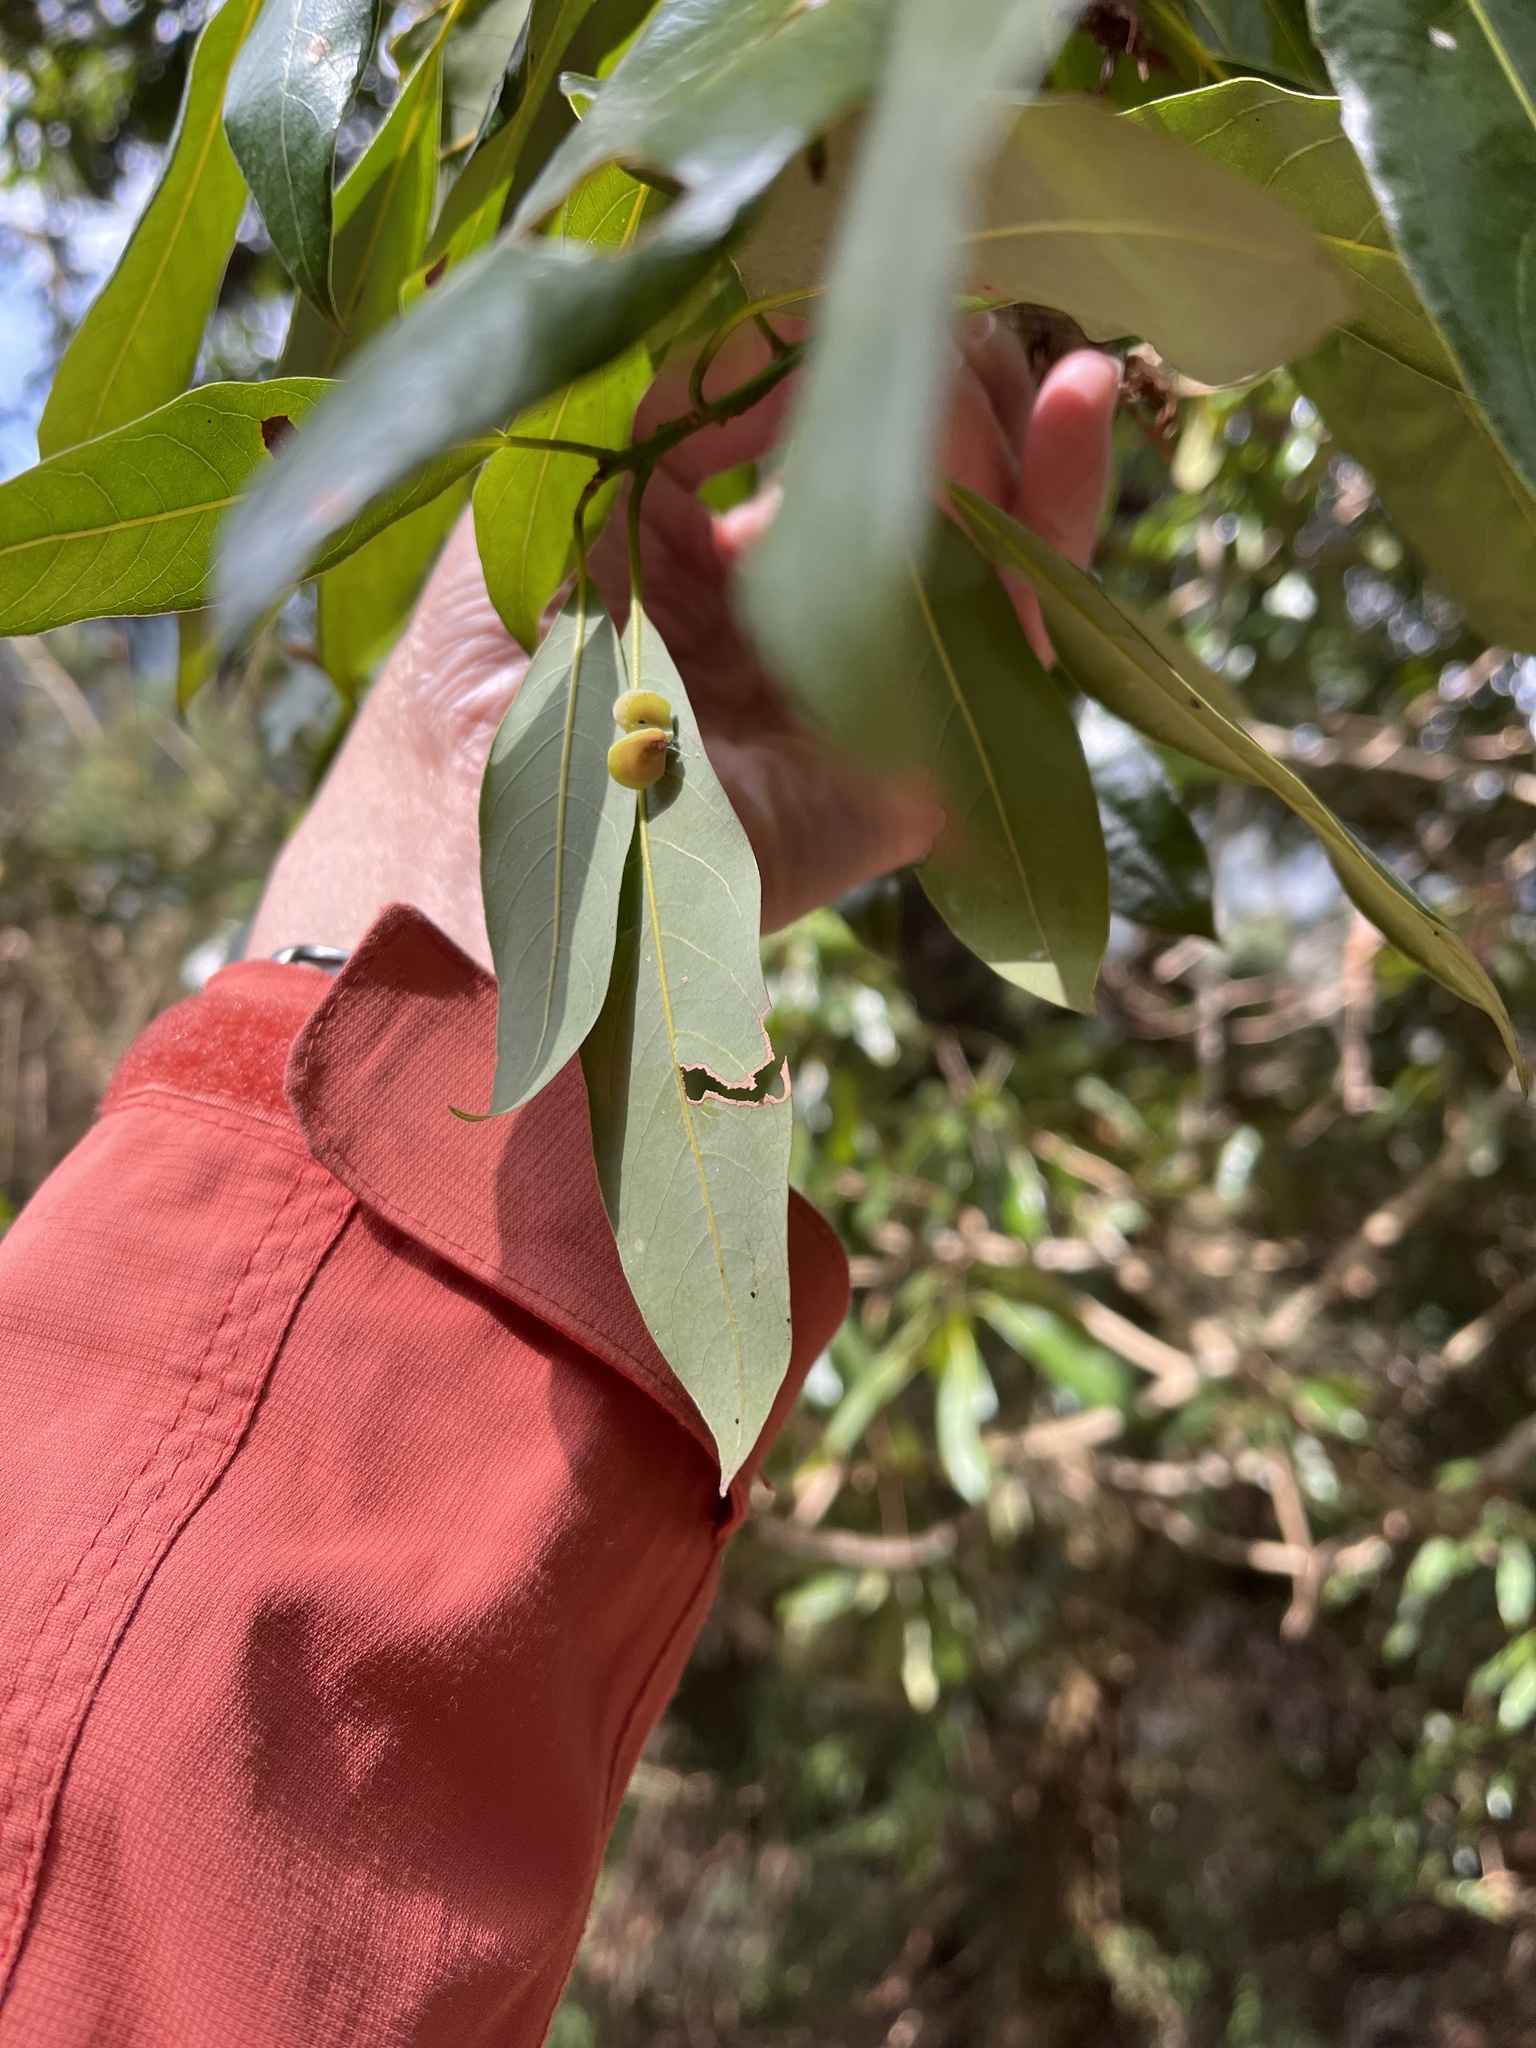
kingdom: Plantae
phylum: Tracheophyta
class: Magnoliopsida
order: Laurales
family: Lauraceae
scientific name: Lauraceae
